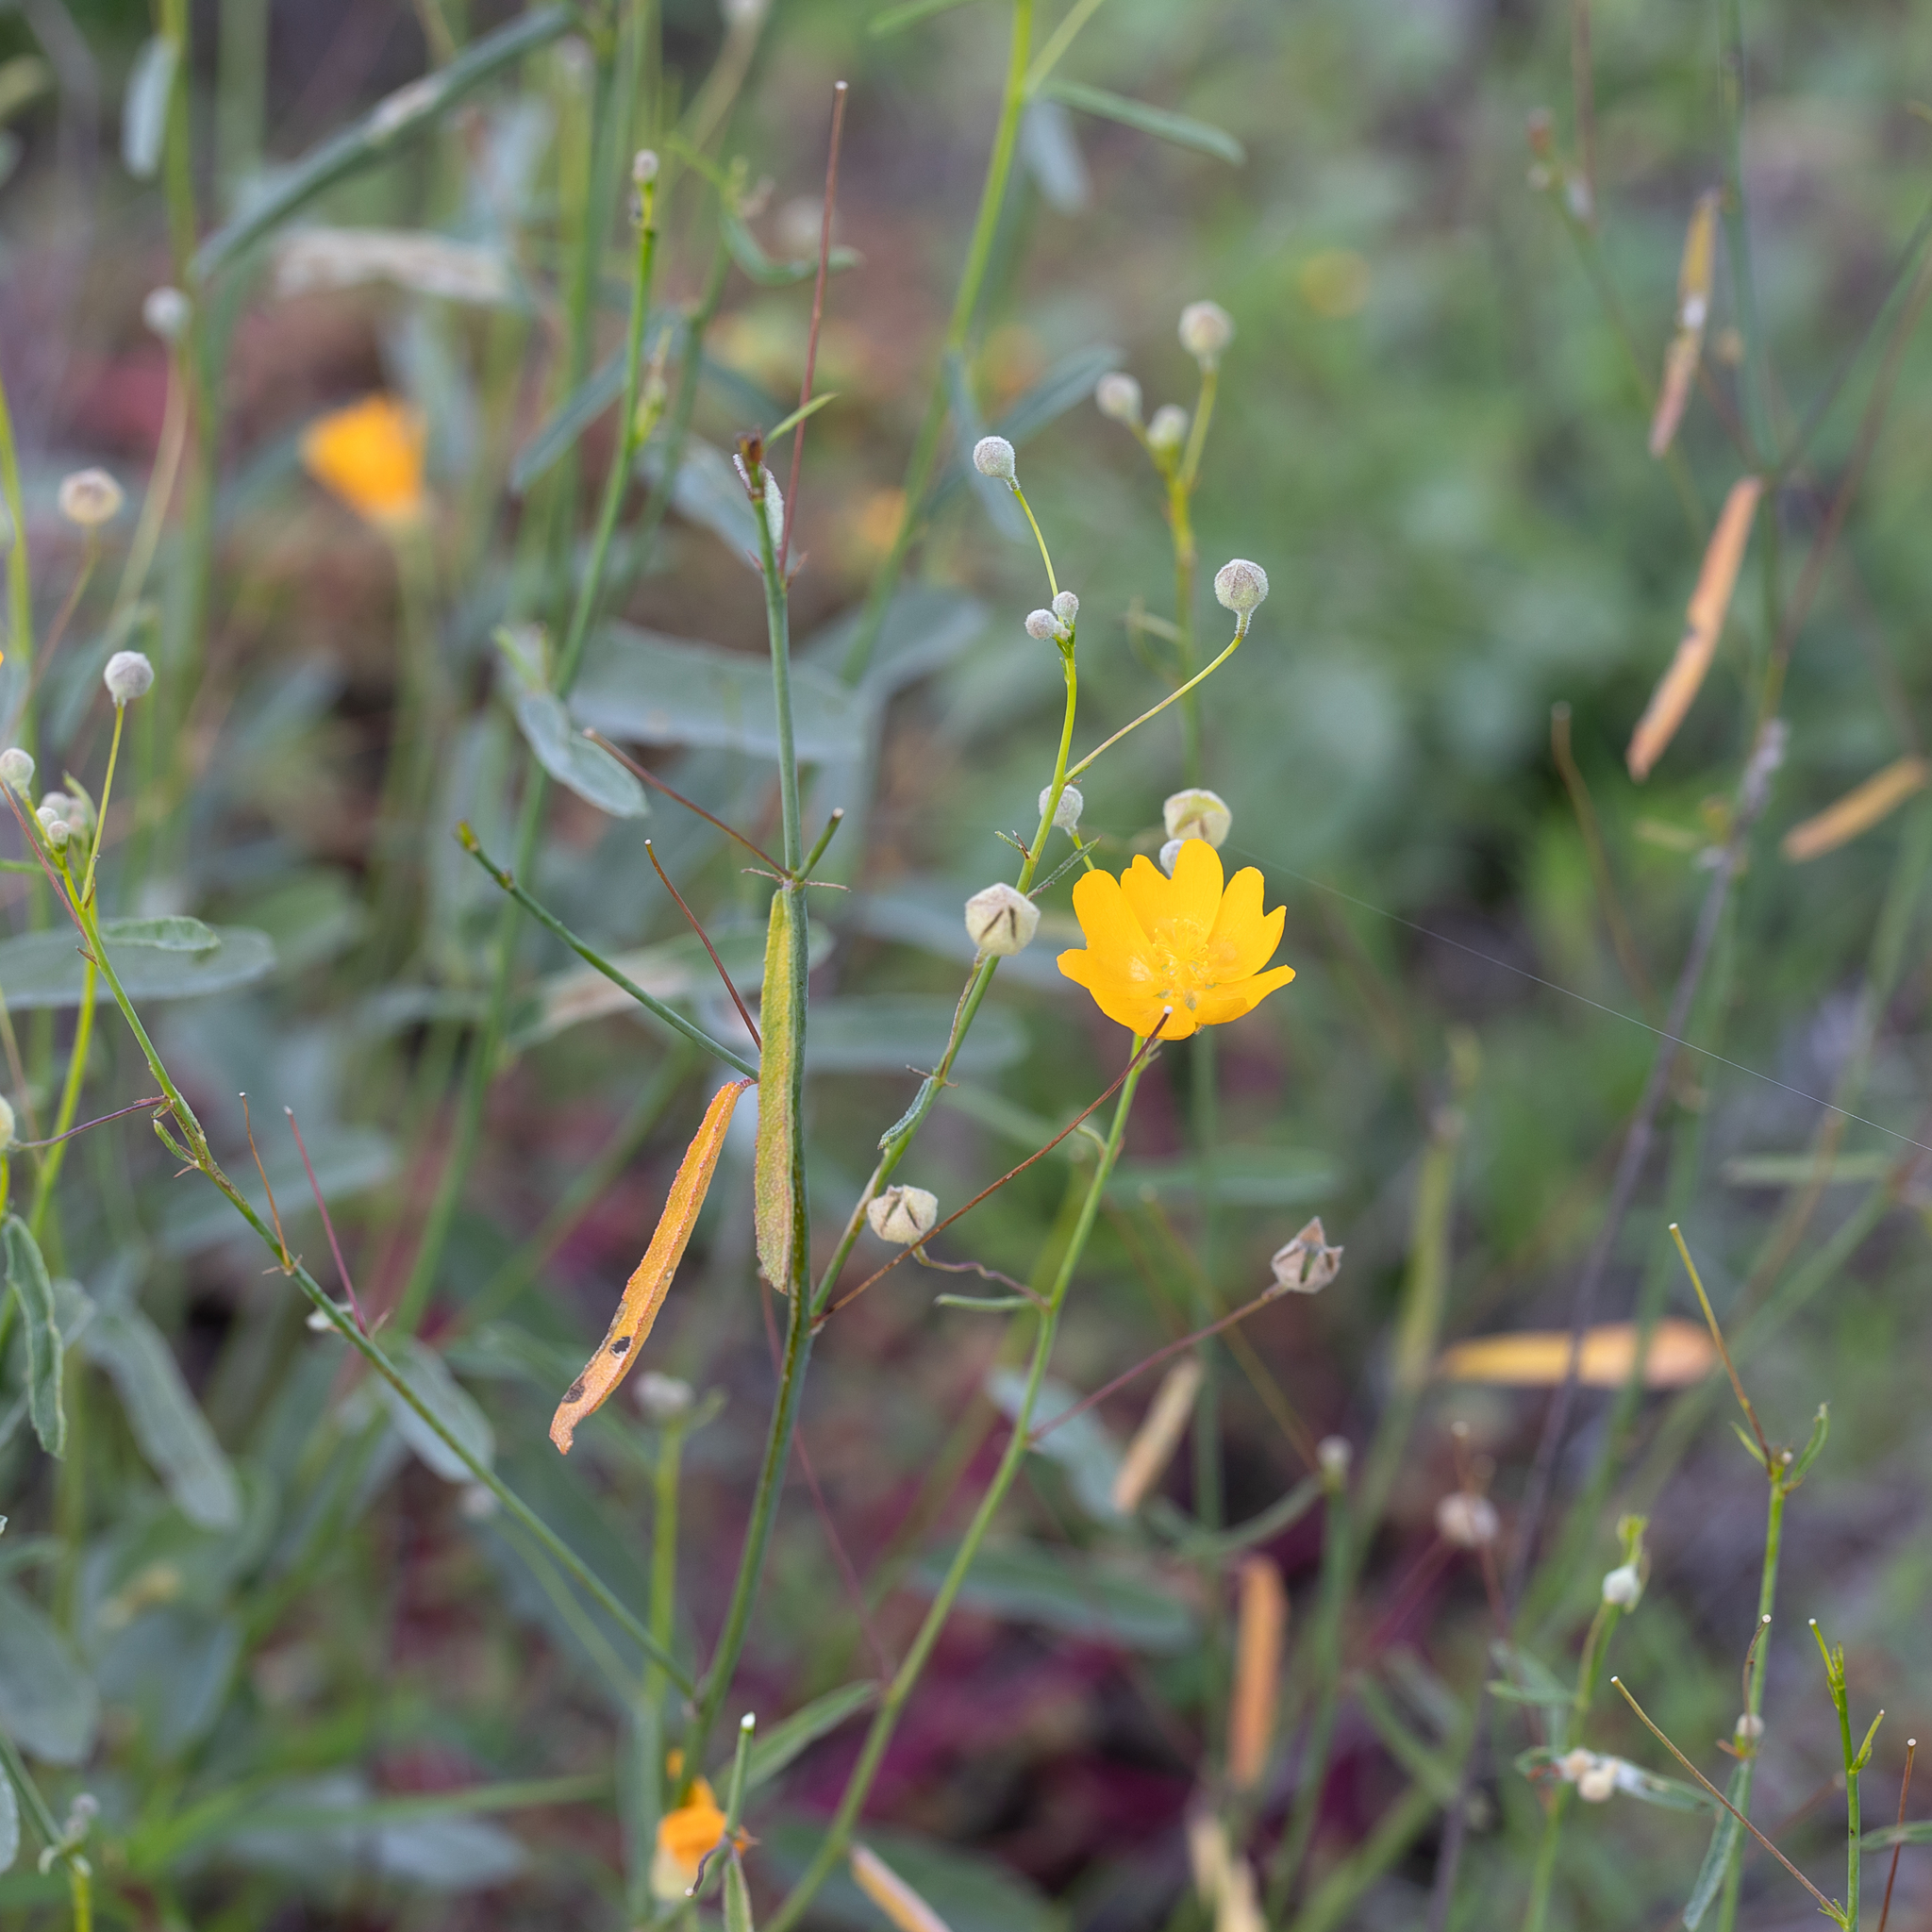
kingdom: Plantae
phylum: Tracheophyta
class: Magnoliopsida
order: Malvales
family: Malvaceae
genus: Sida
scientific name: Sida trichopoda
